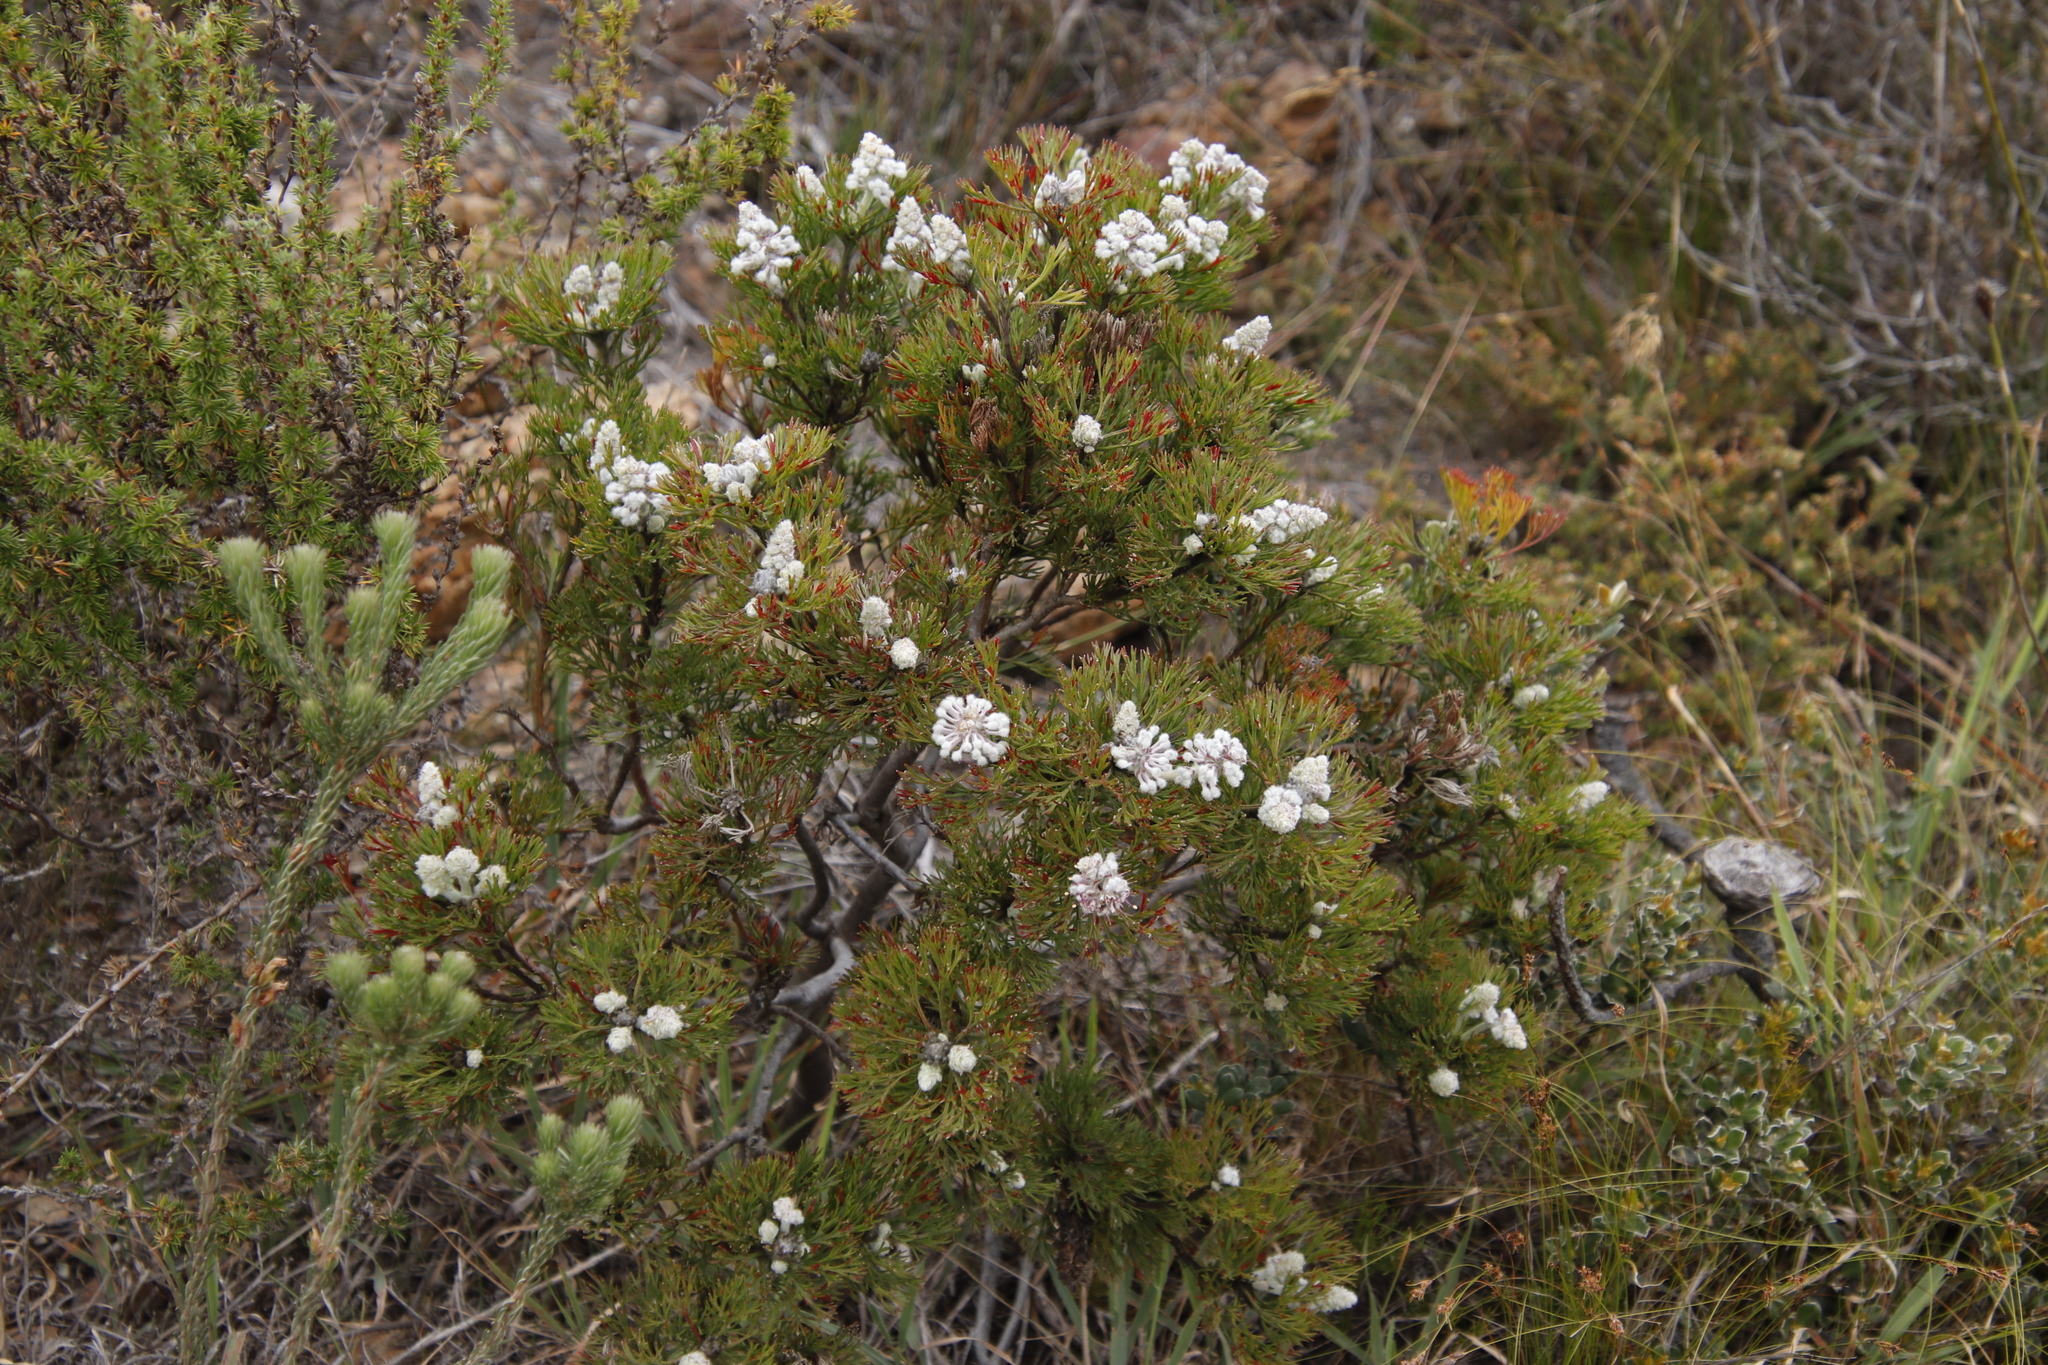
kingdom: Plantae
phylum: Tracheophyta
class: Magnoliopsida
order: Proteales
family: Proteaceae
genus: Paranomus
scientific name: Paranomus abrotanifolius
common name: Bredasdorp sceptre
